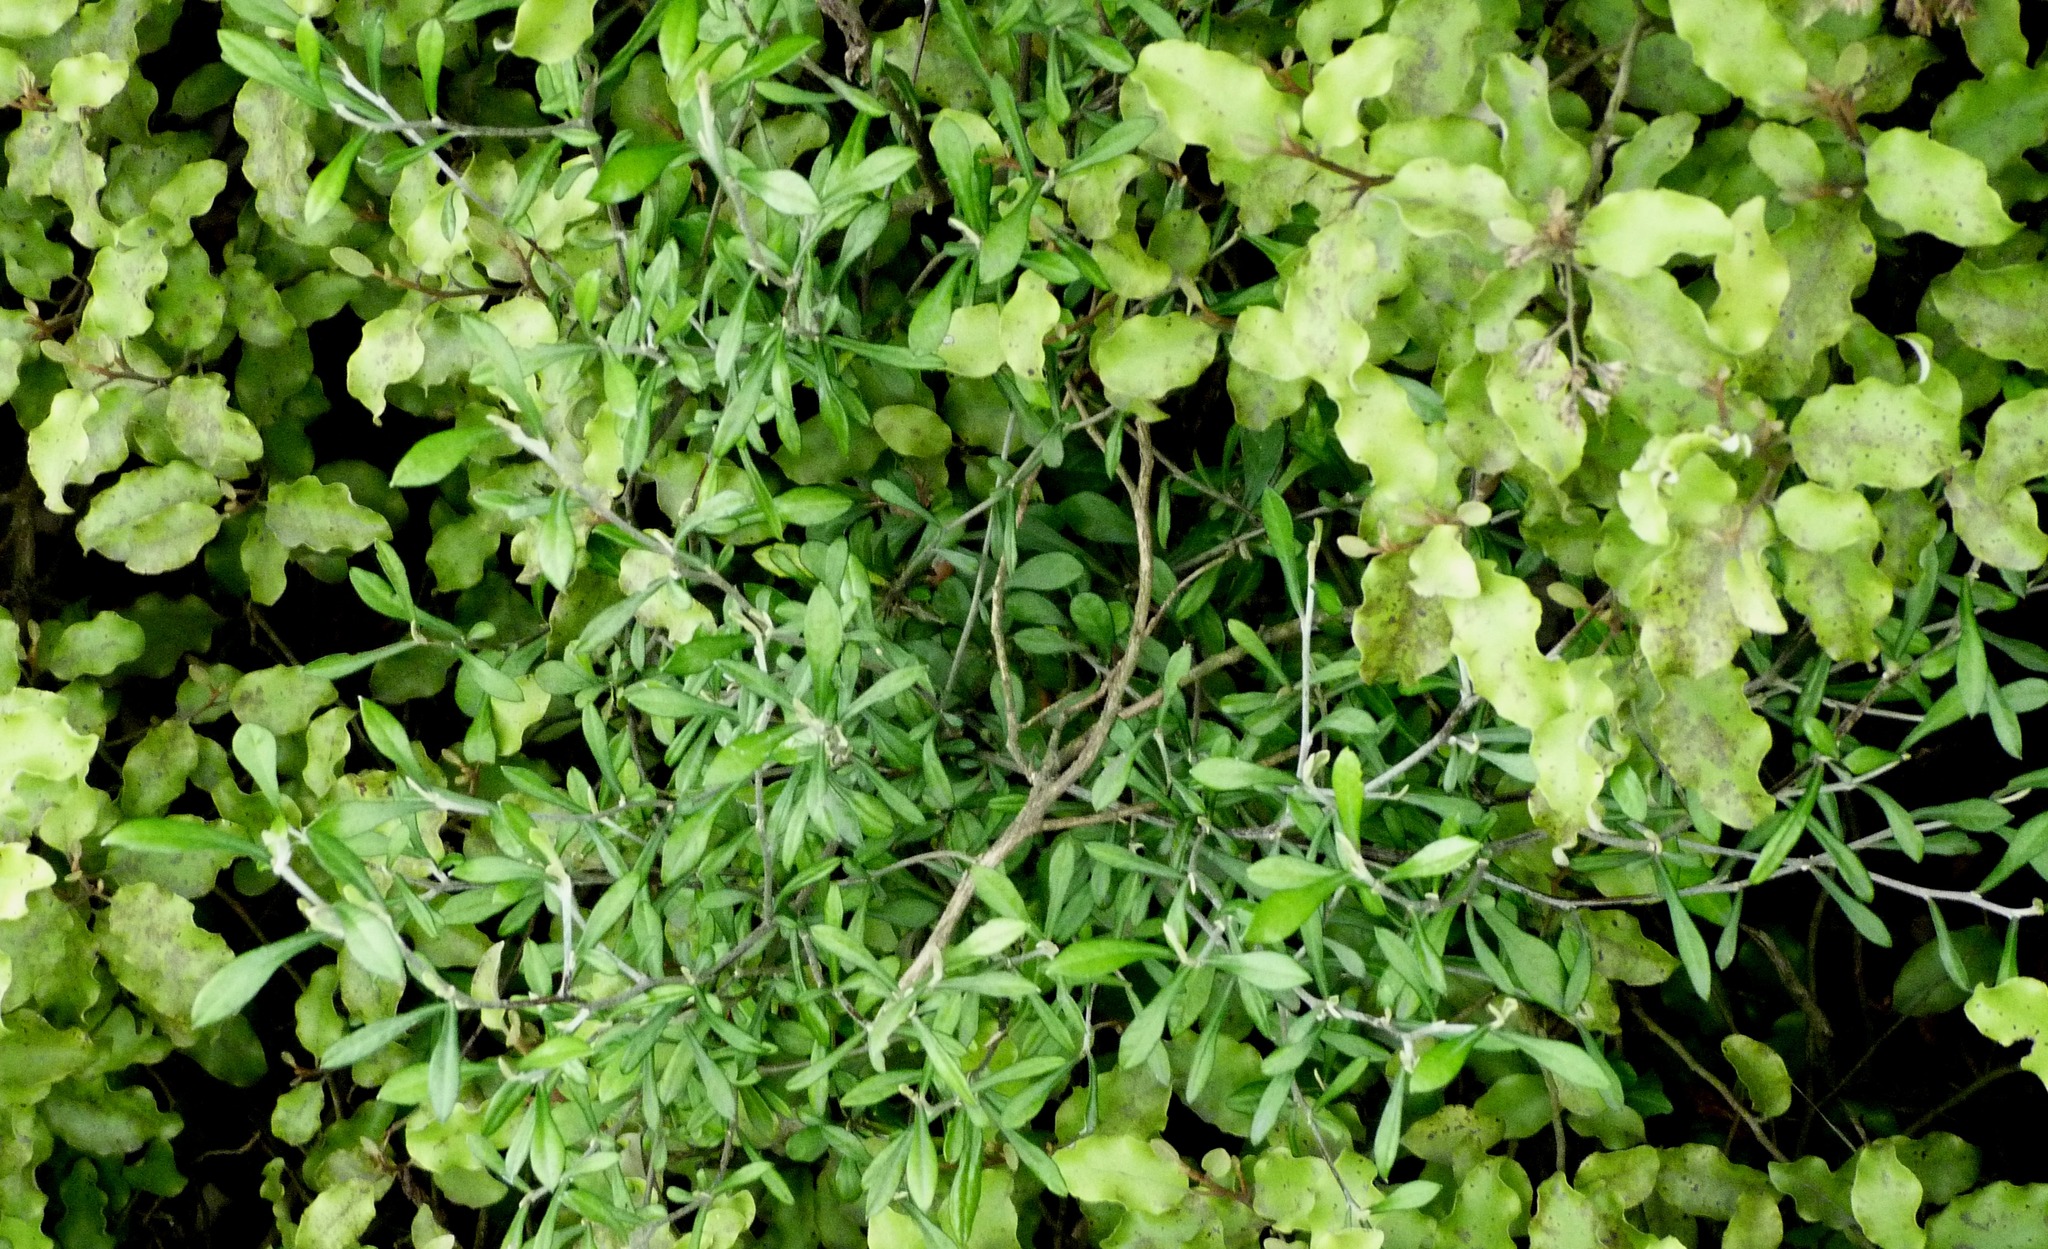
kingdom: Plantae
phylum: Tracheophyta
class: Magnoliopsida
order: Asterales
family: Argophyllaceae
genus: Corokia
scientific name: Corokia buddleioides
